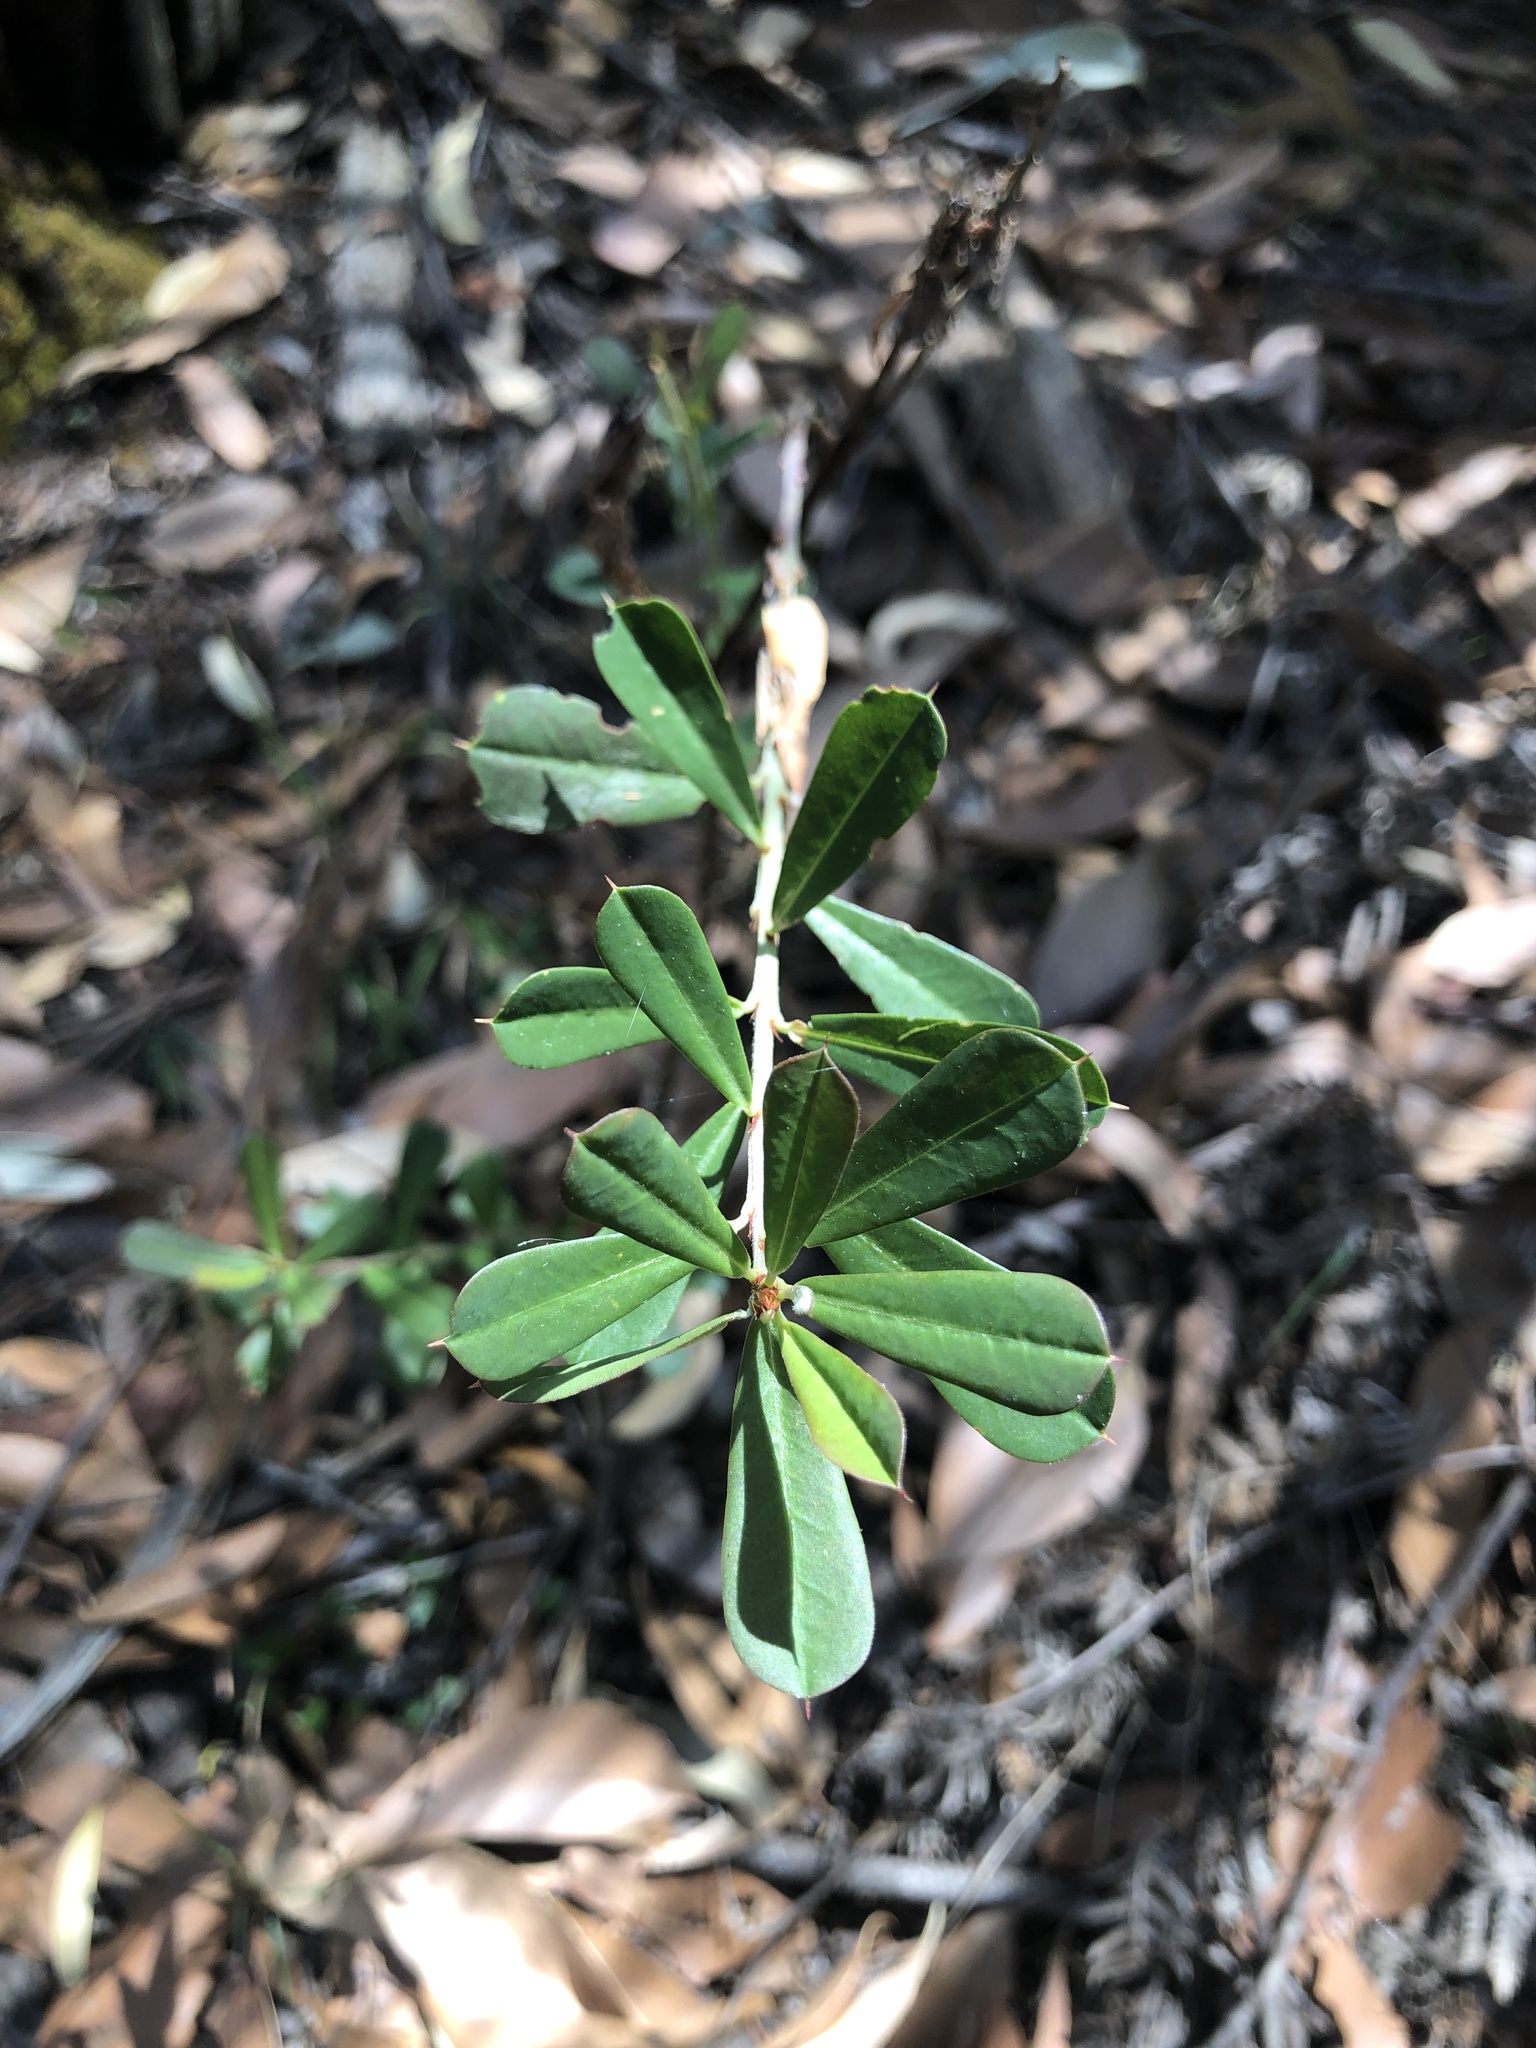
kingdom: Plantae
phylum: Tracheophyta
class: Magnoliopsida
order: Fabales
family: Fabaceae
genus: Pultenaea
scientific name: Pultenaea daphnoides
